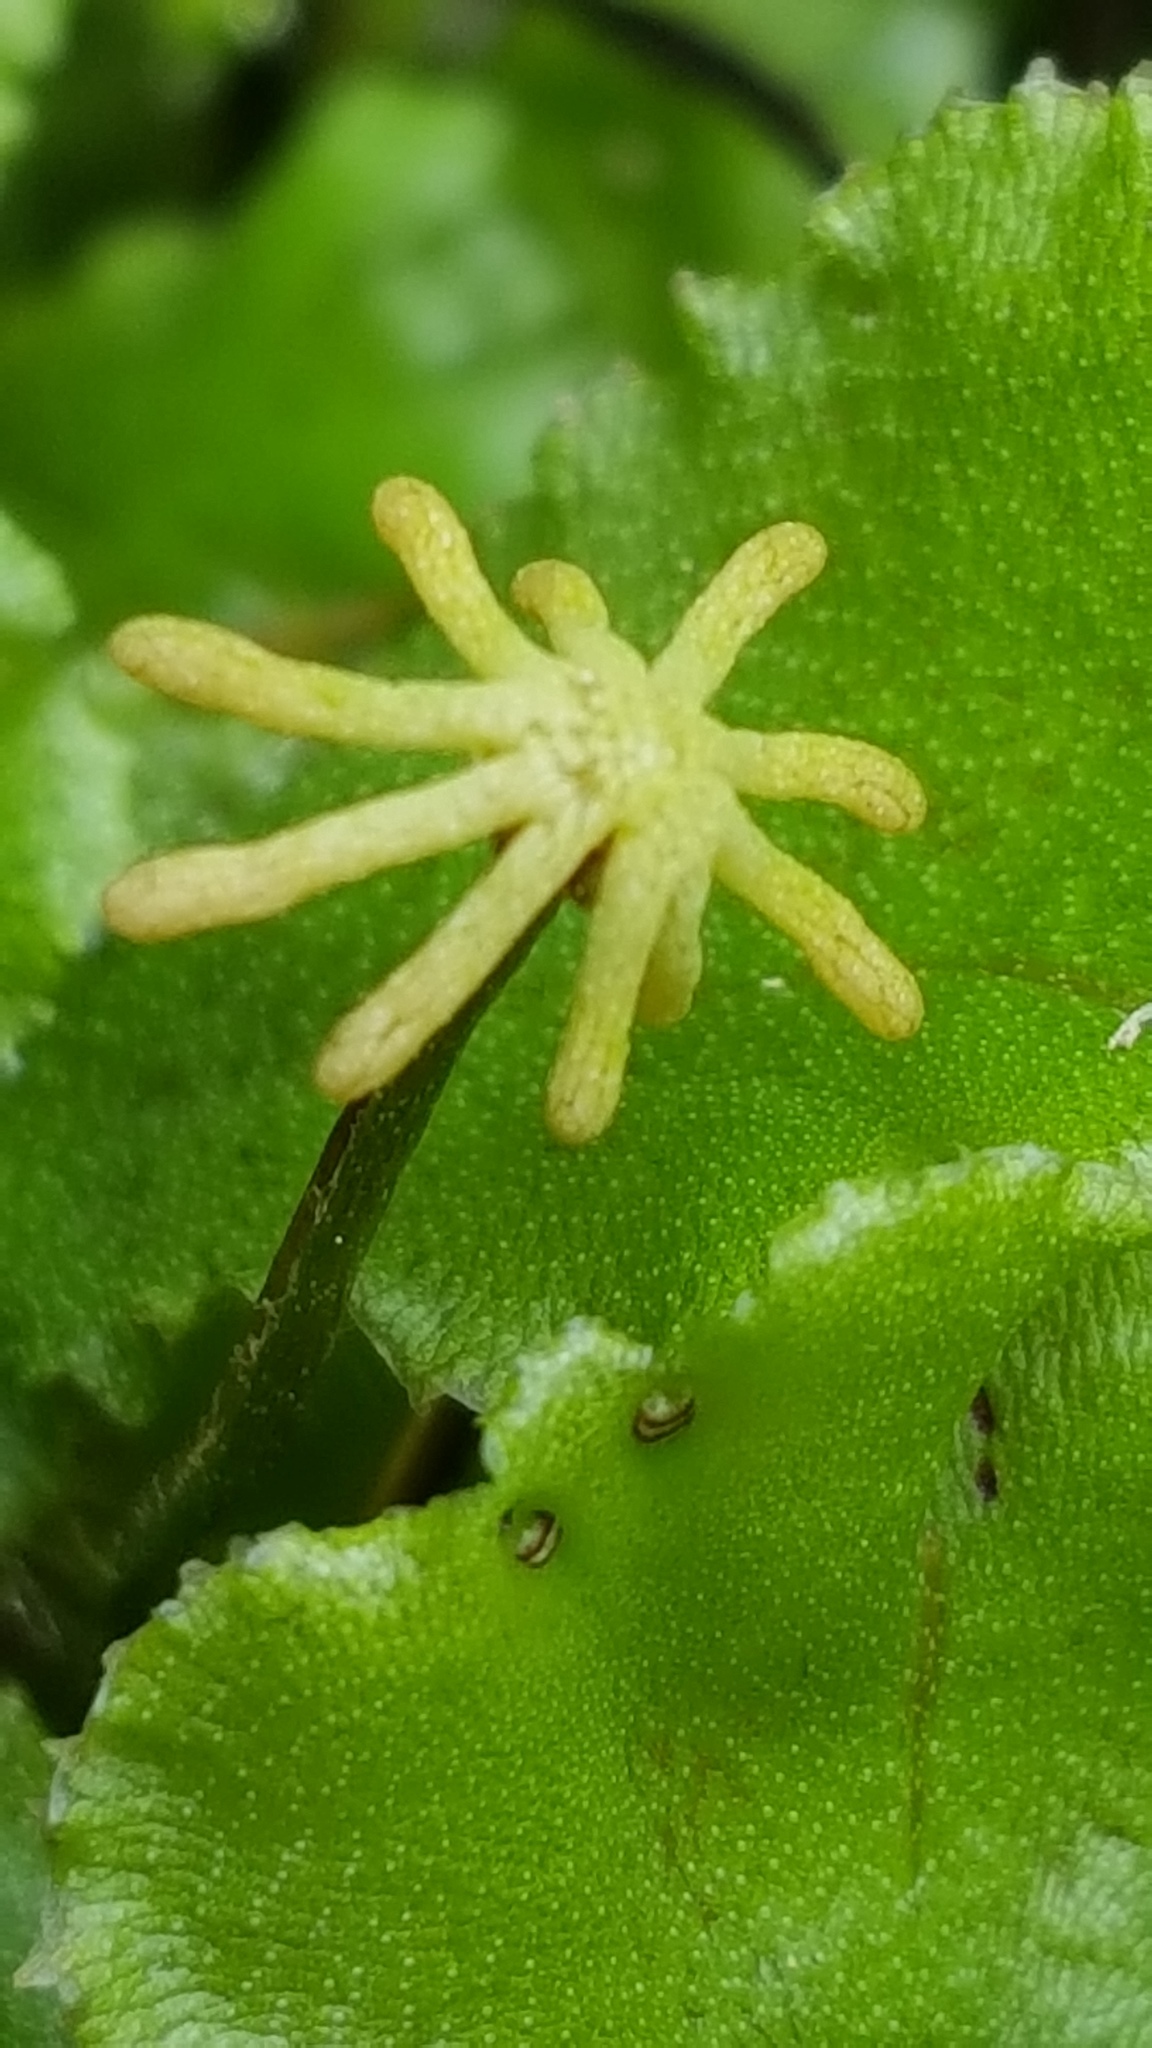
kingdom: Plantae
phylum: Marchantiophyta
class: Marchantiopsida
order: Marchantiales
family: Marchantiaceae
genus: Marchantia
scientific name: Marchantia polymorpha
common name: Common liverwort
